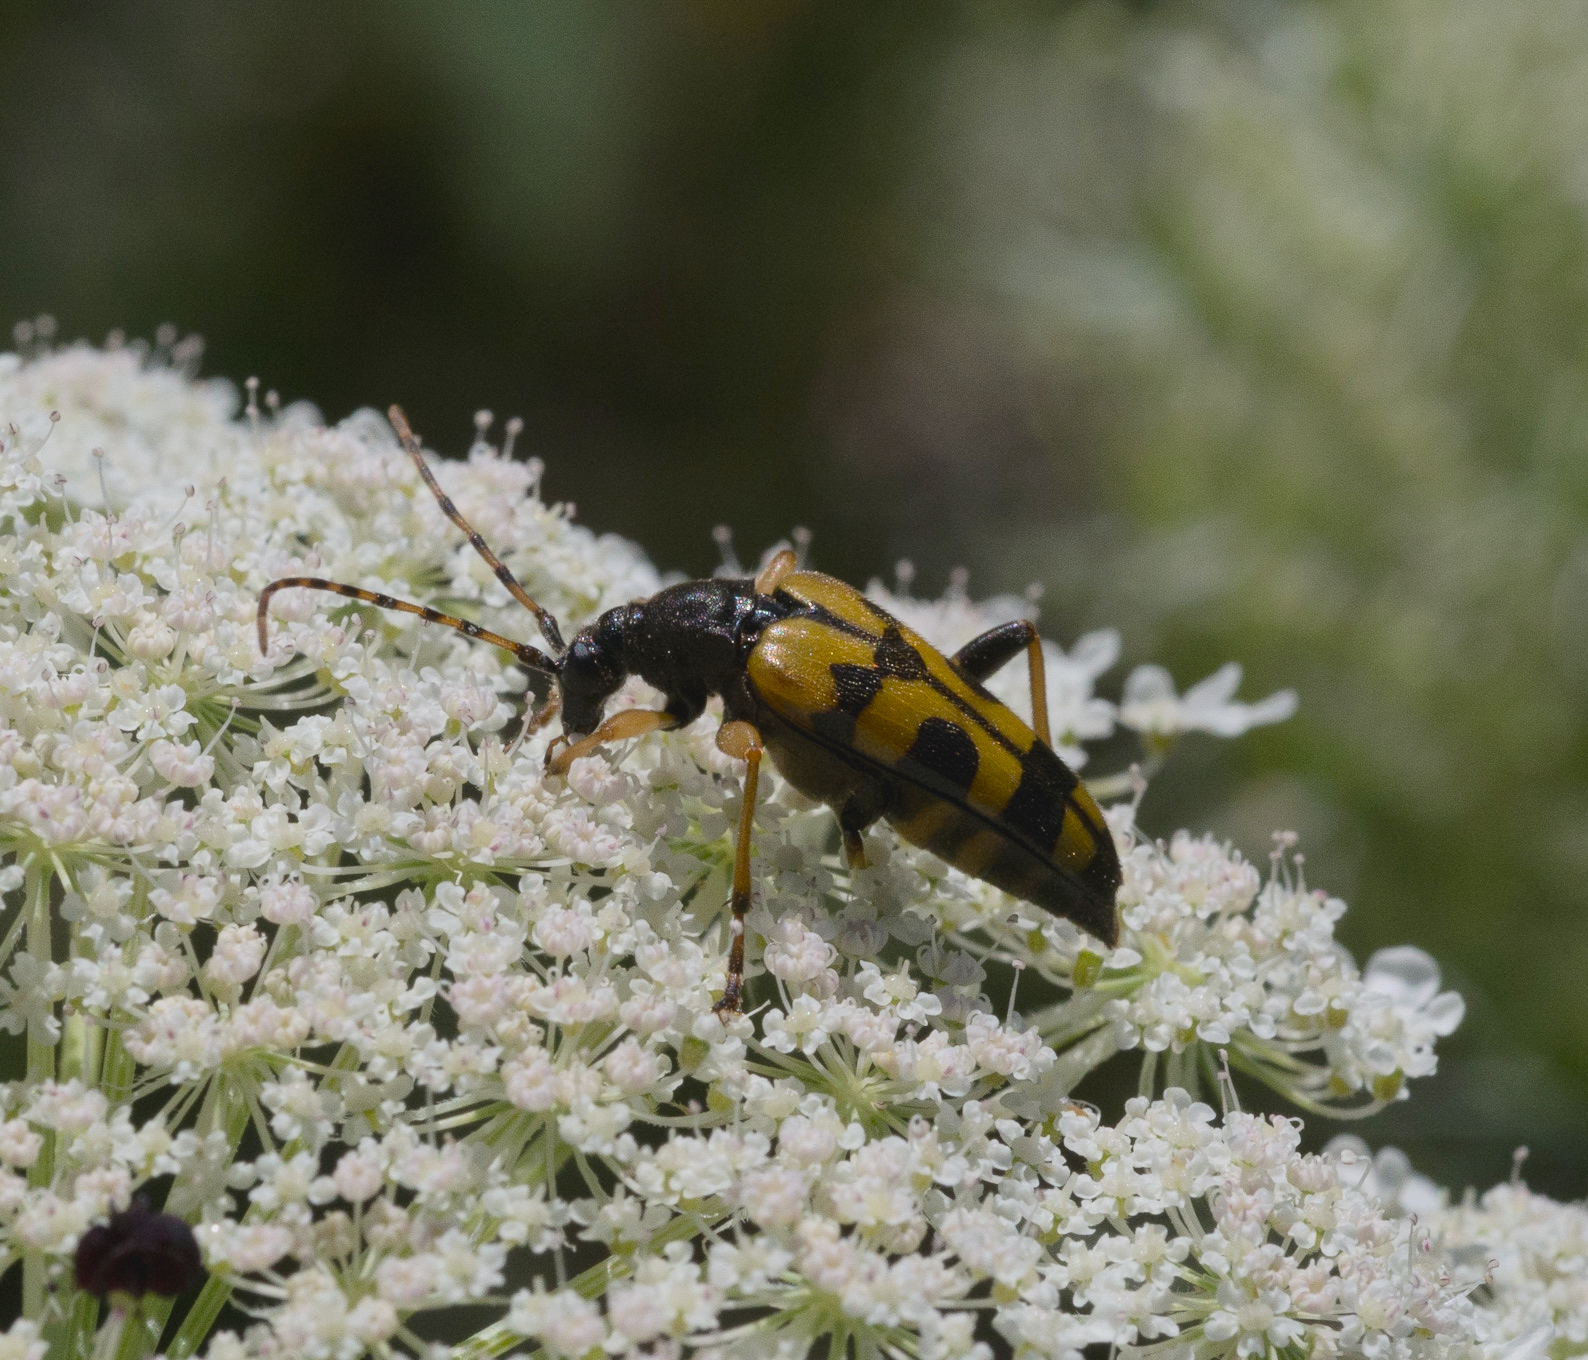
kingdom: Animalia
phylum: Arthropoda
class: Insecta
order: Coleoptera
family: Cerambycidae
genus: Rutpela
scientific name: Rutpela maculata
